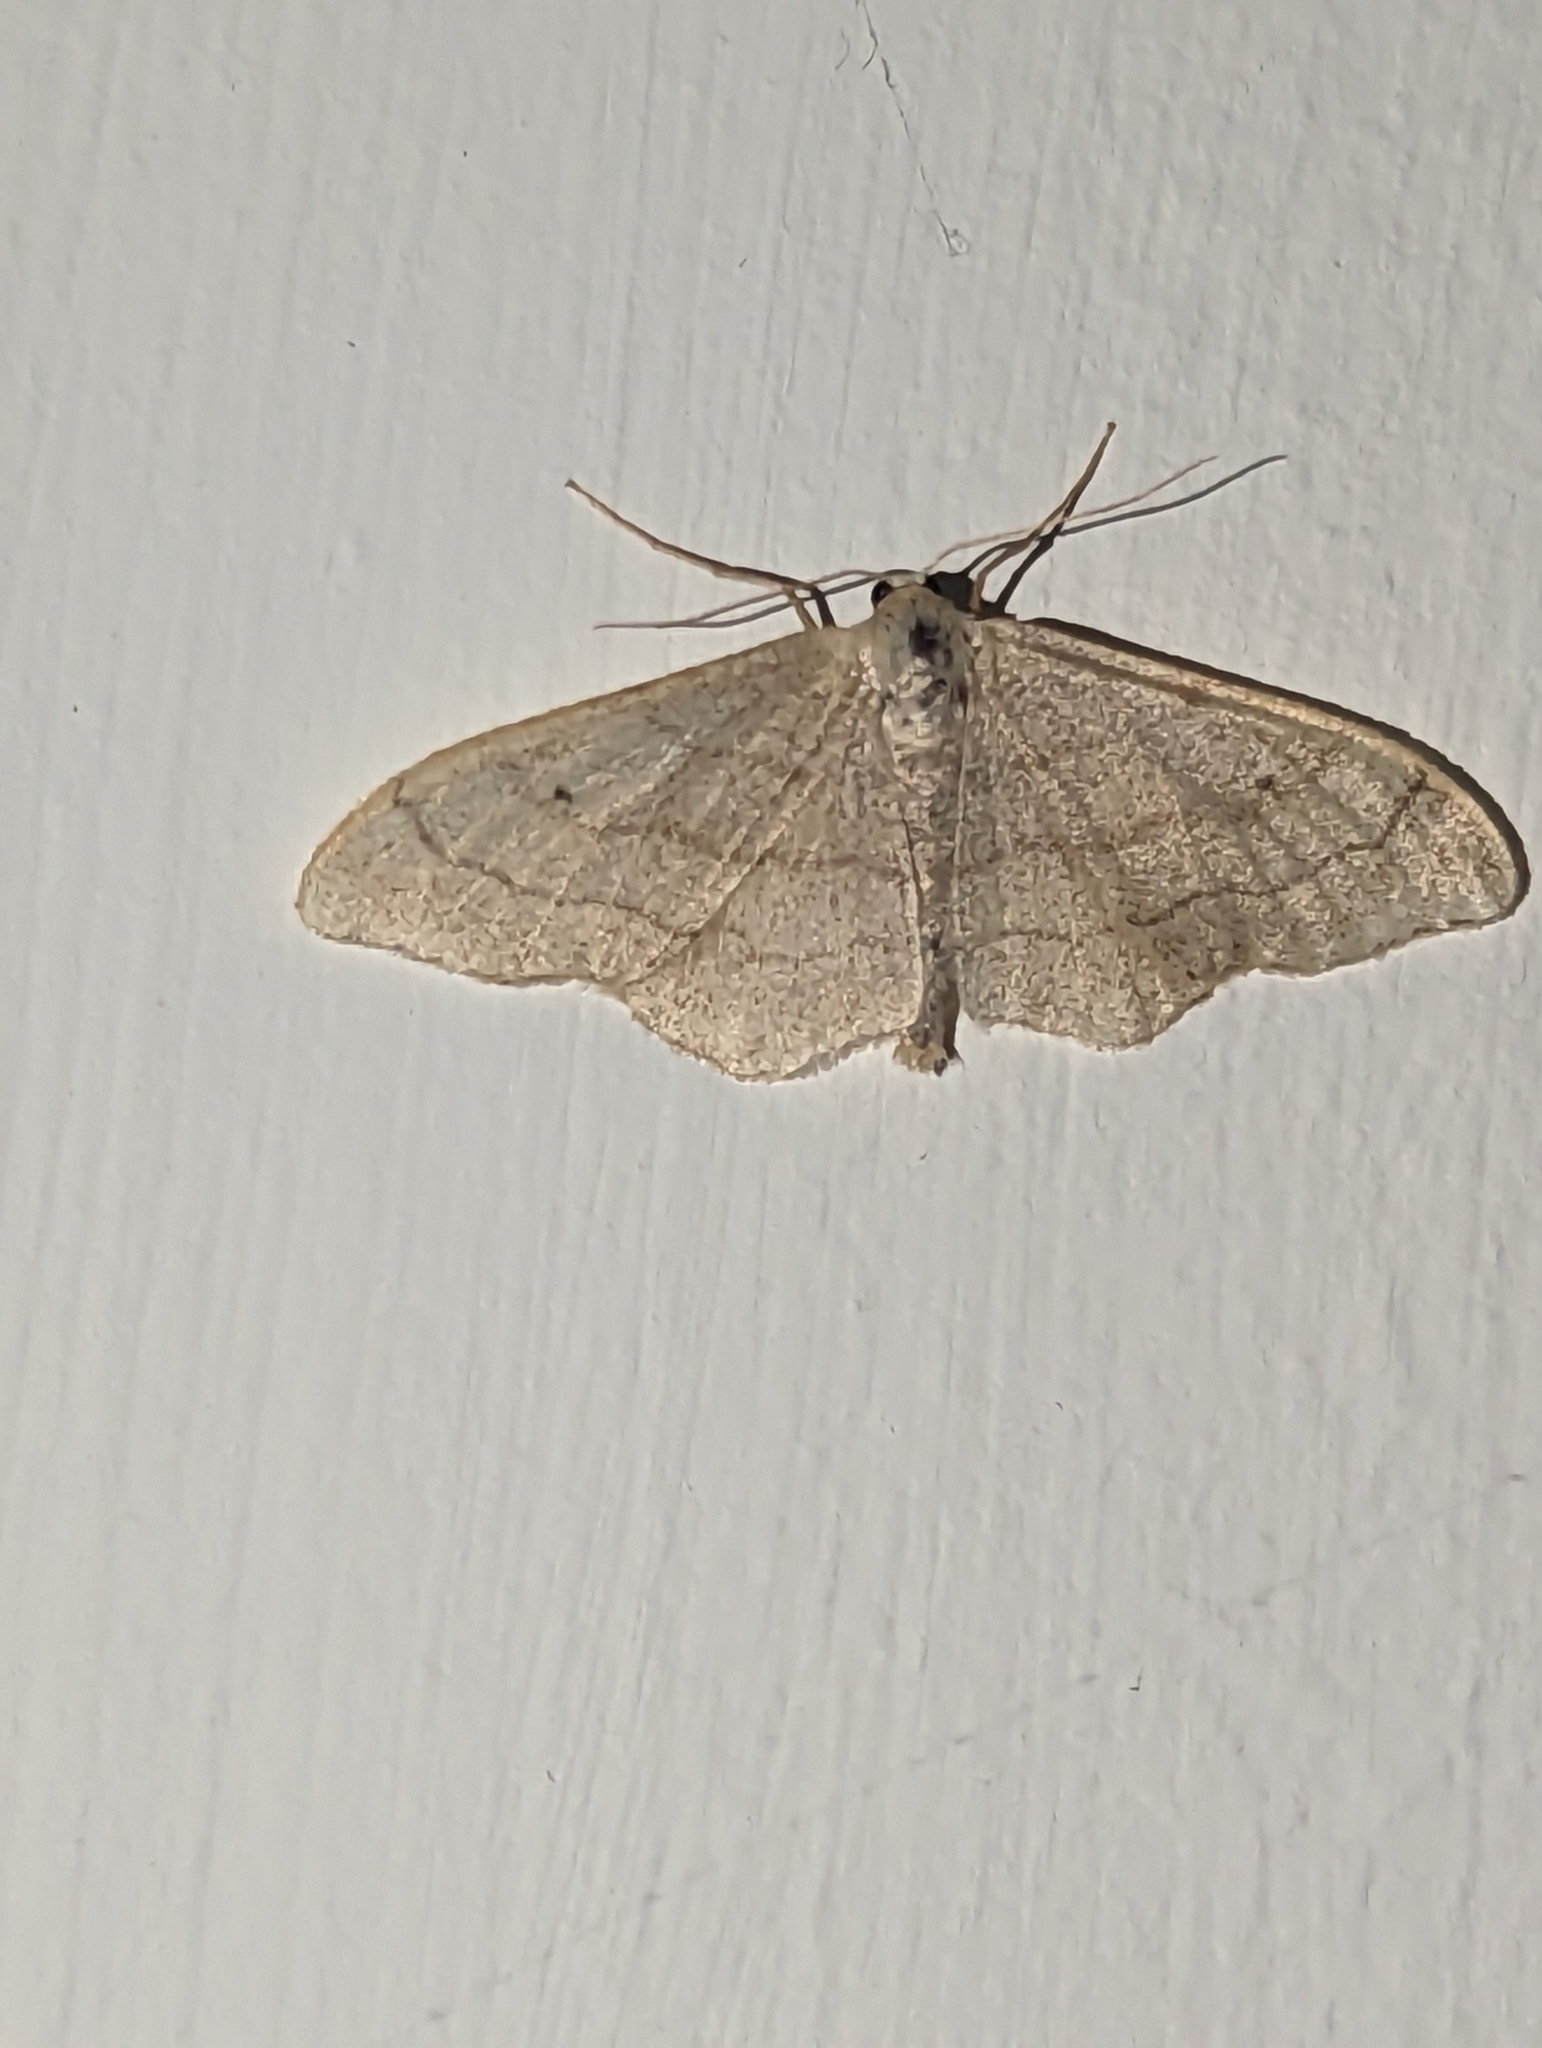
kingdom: Animalia
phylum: Arthropoda
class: Insecta
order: Lepidoptera
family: Geometridae
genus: Idaea
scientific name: Idaea aversata
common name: Riband wave
